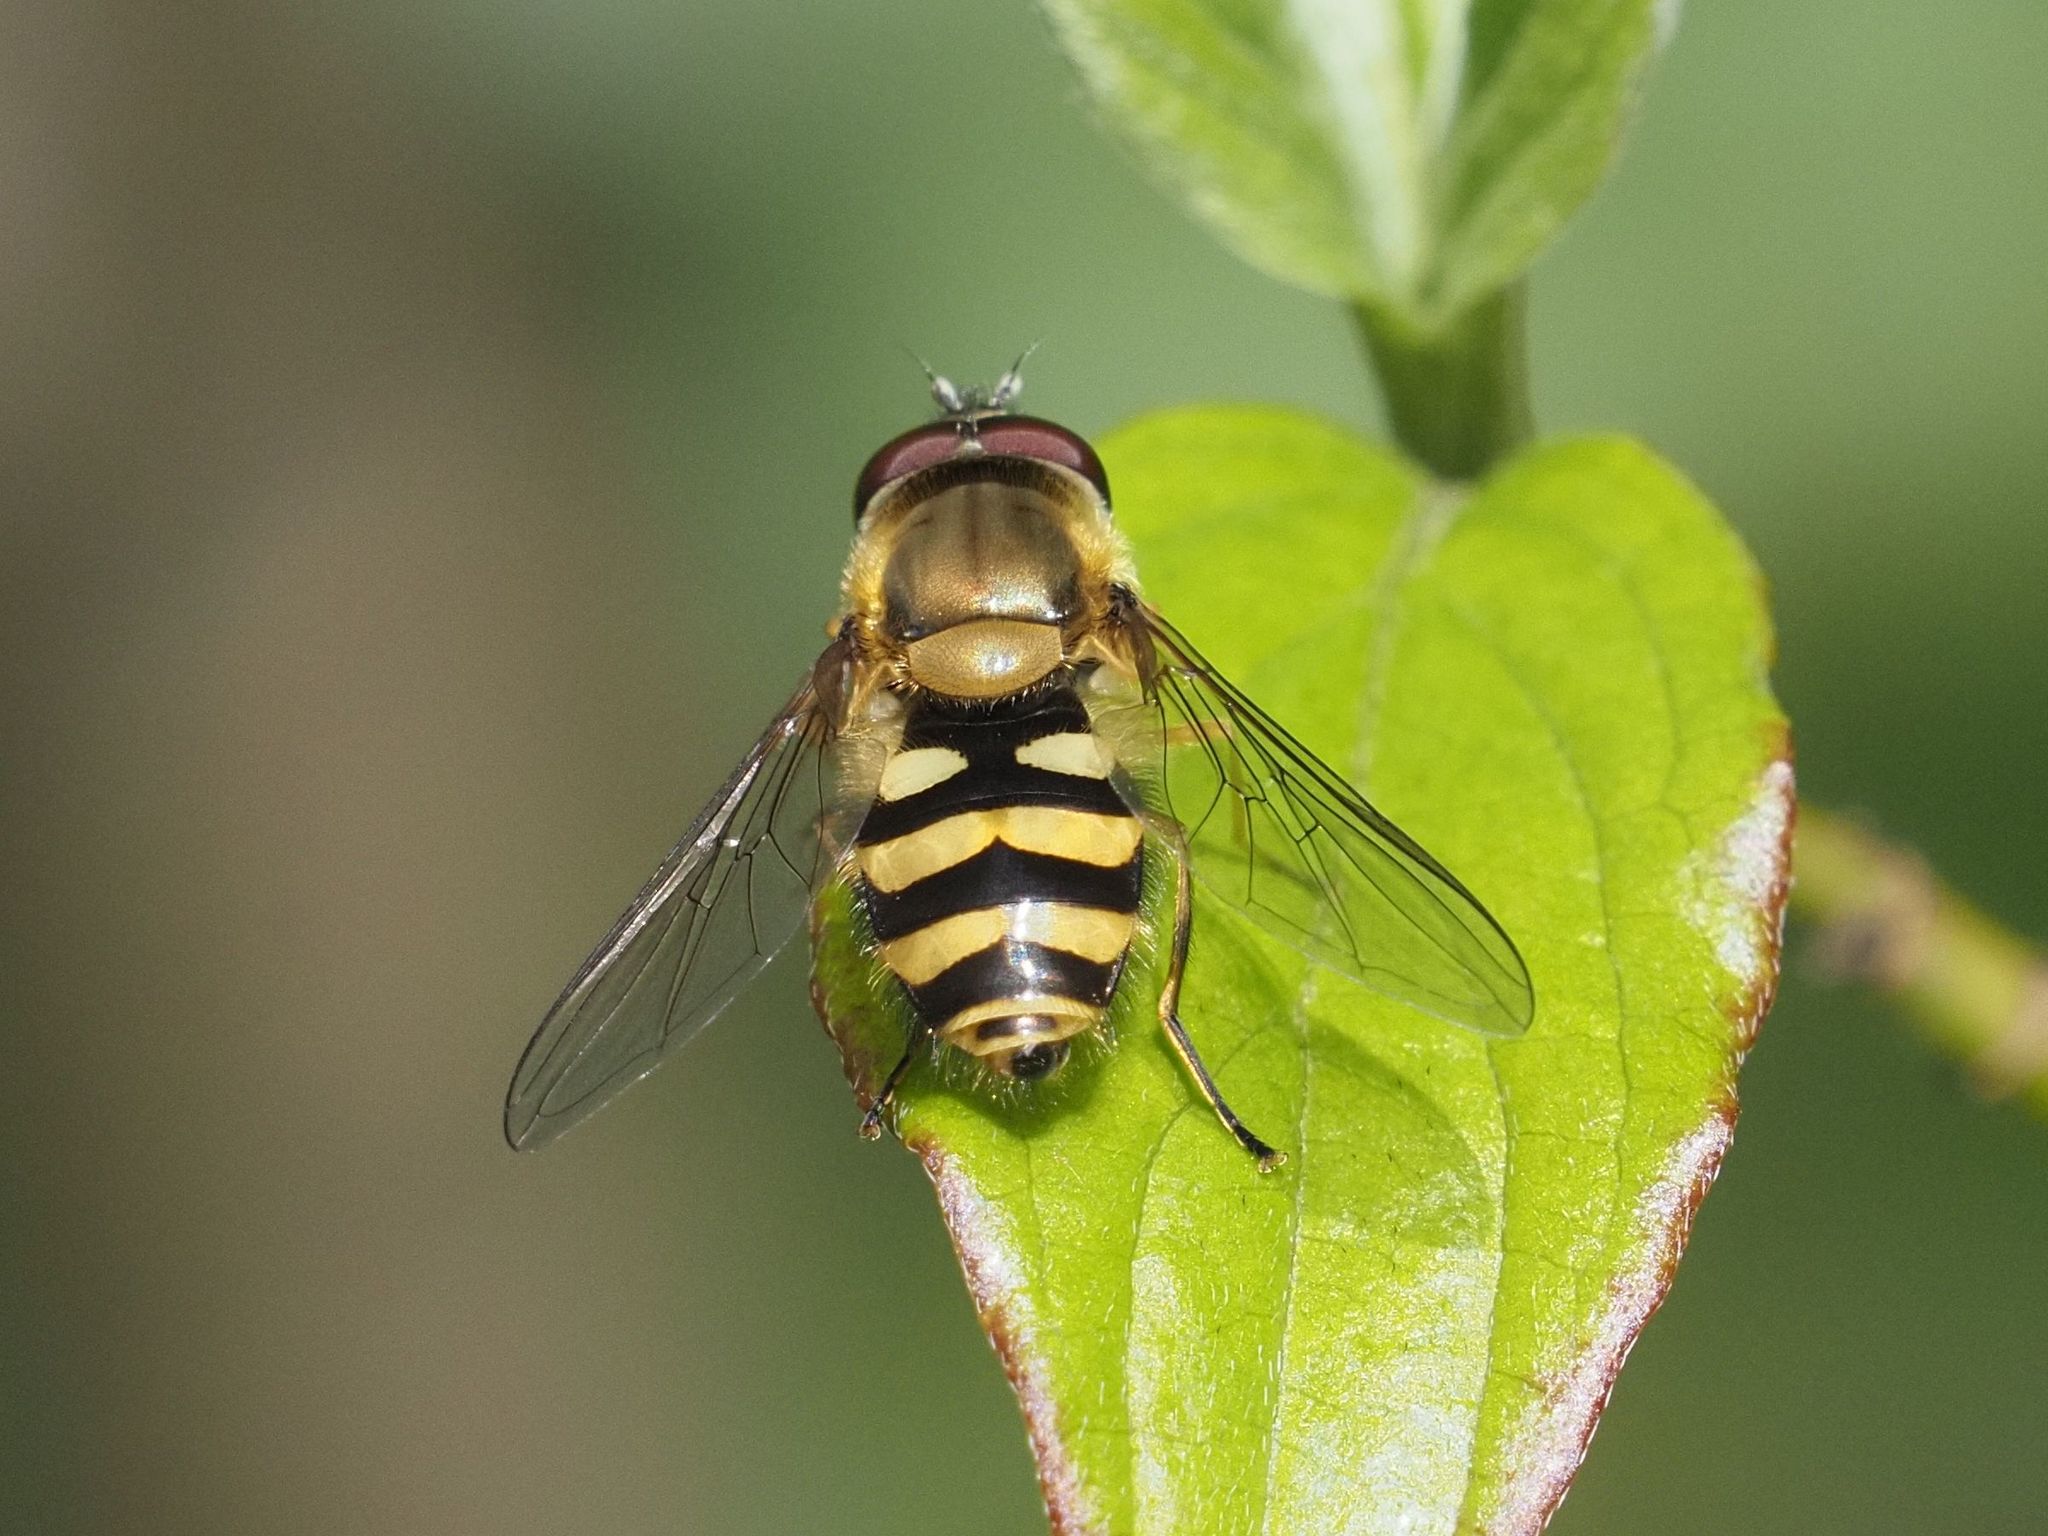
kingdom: Animalia
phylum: Arthropoda
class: Insecta
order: Diptera
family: Syrphidae
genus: Syrphus
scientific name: Syrphus
